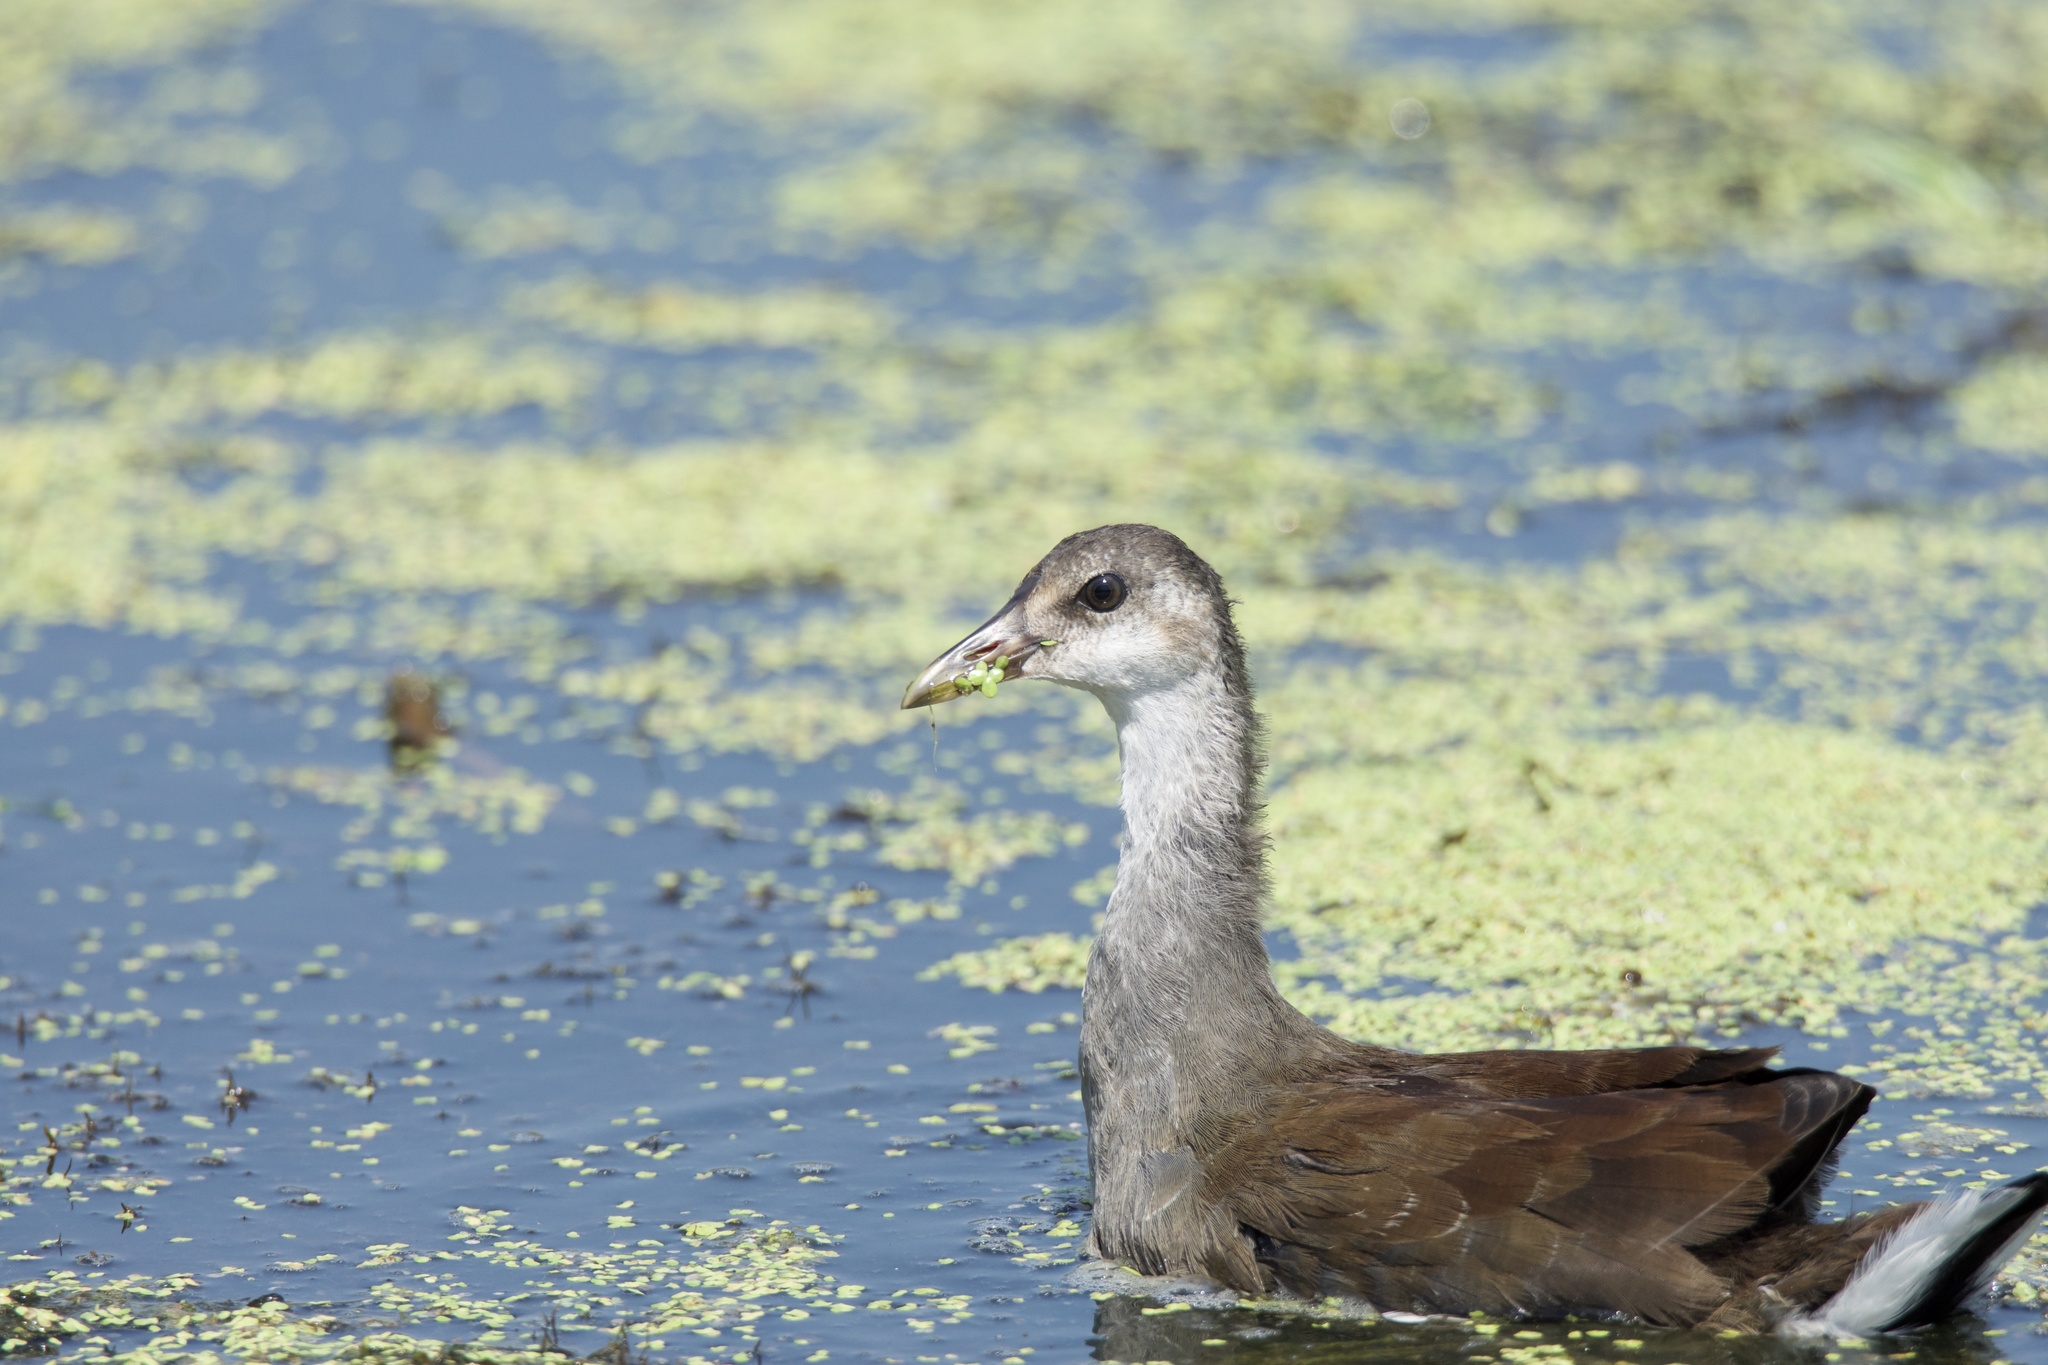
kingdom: Animalia
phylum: Chordata
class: Aves
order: Gruiformes
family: Rallidae
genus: Gallinula
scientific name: Gallinula chloropus
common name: Common moorhen
